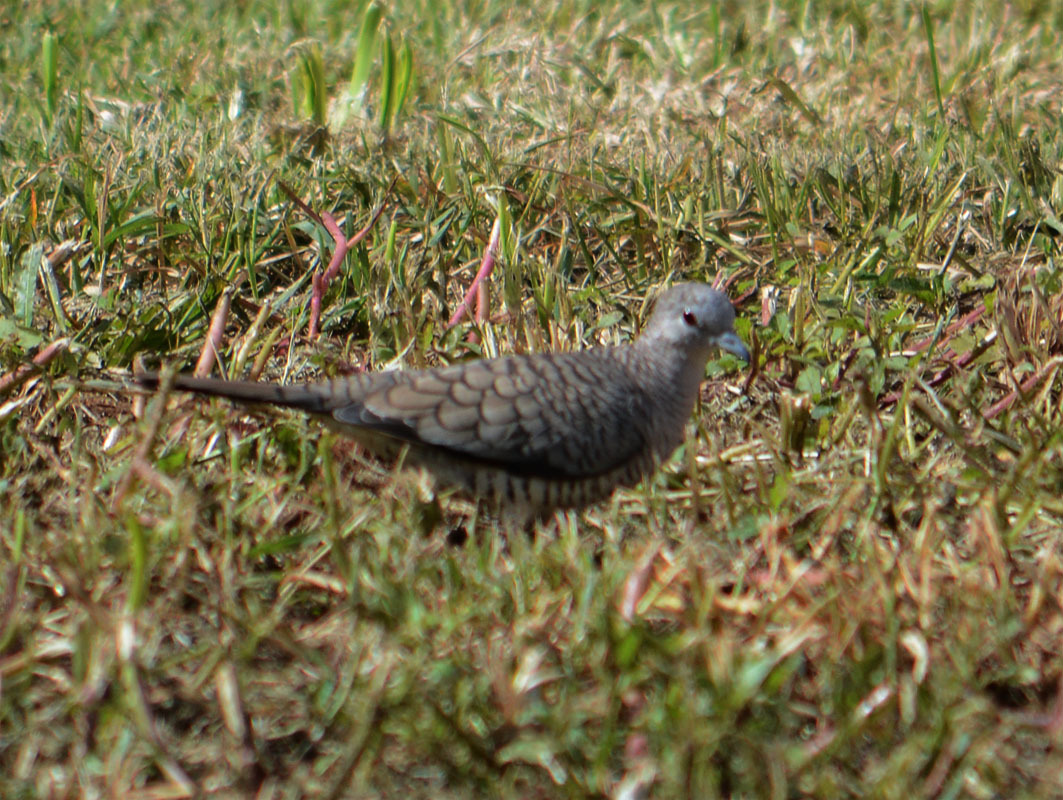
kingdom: Animalia
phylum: Chordata
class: Aves
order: Columbiformes
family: Columbidae
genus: Columbina
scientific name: Columbina inca
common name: Inca dove
